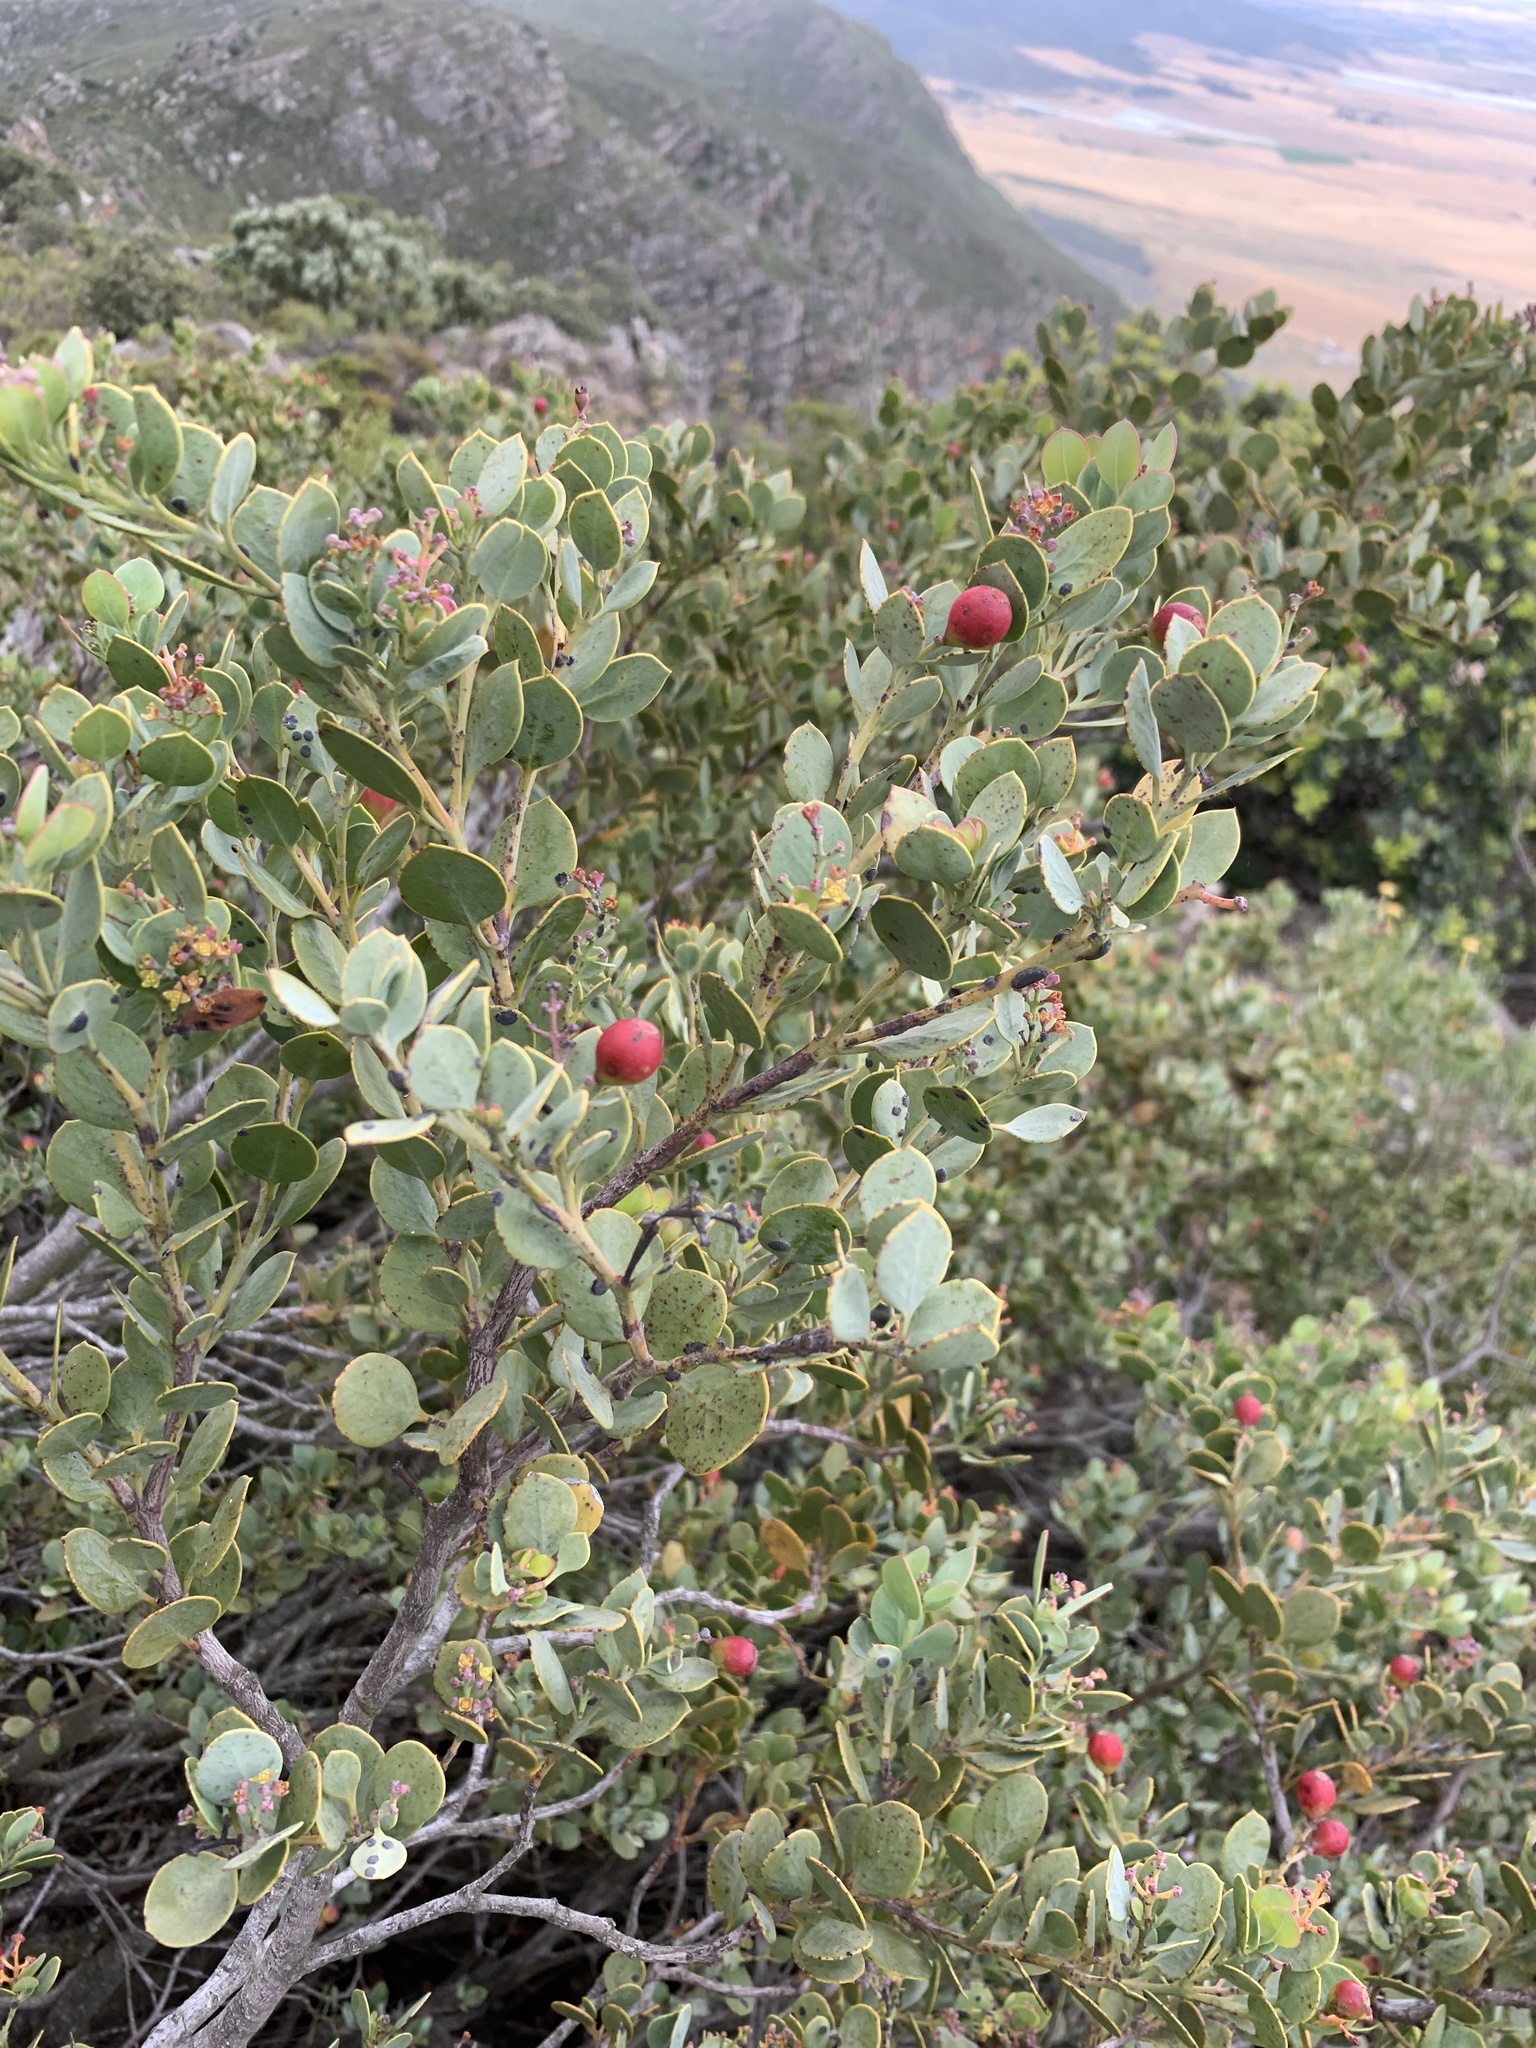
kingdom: Plantae
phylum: Tracheophyta
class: Magnoliopsida
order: Santalales
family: Santalaceae
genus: Osyris
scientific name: Osyris compressa
